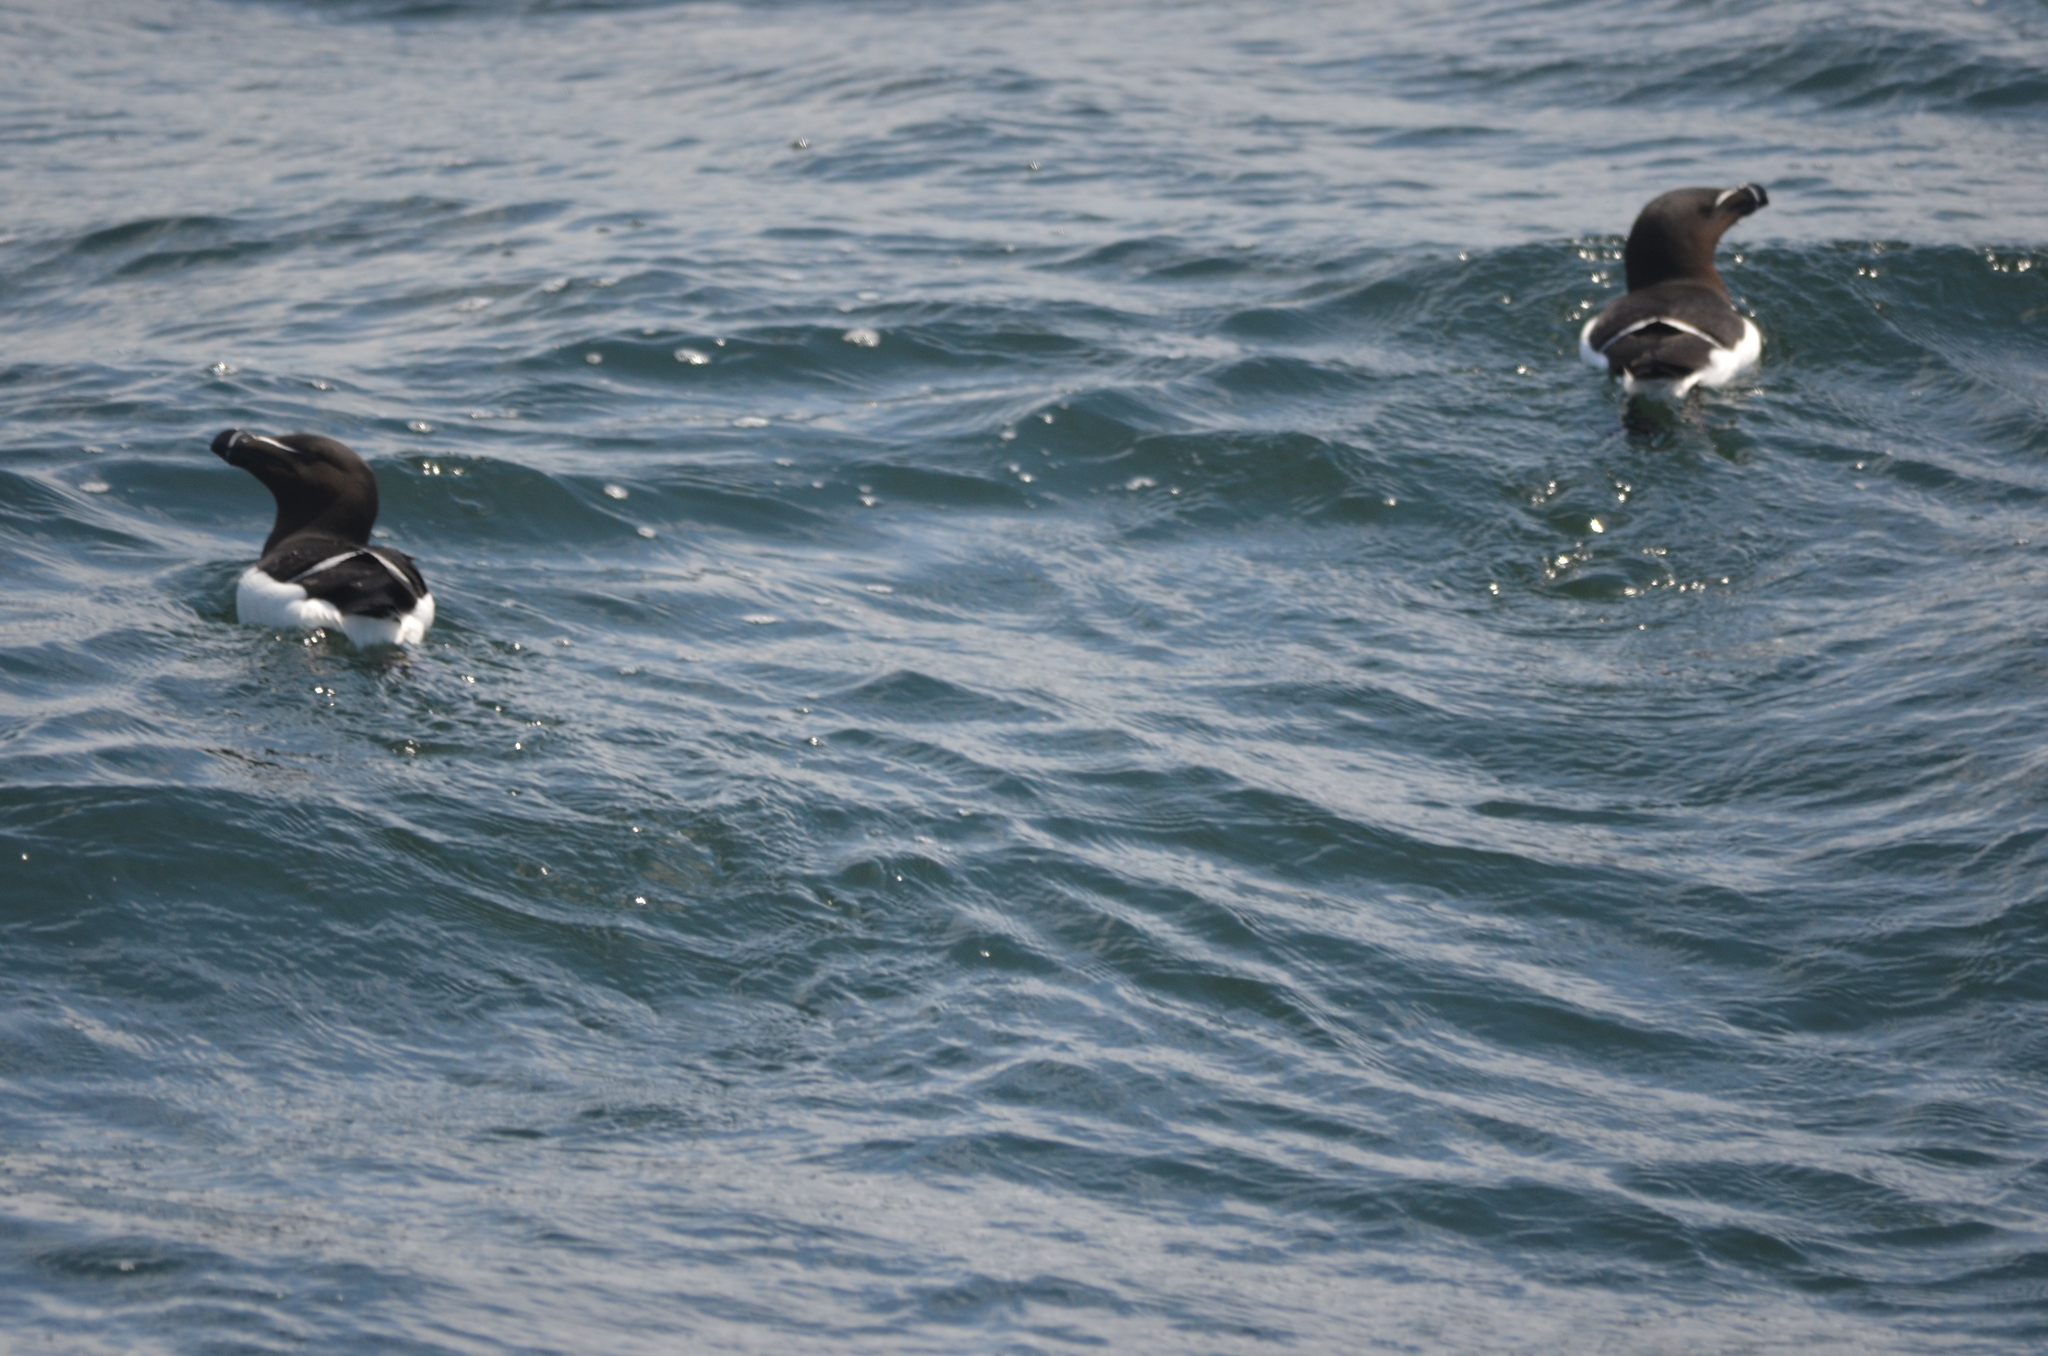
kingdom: Animalia
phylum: Chordata
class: Aves
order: Charadriiformes
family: Alcidae
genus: Alca
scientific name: Alca torda
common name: Razorbill
